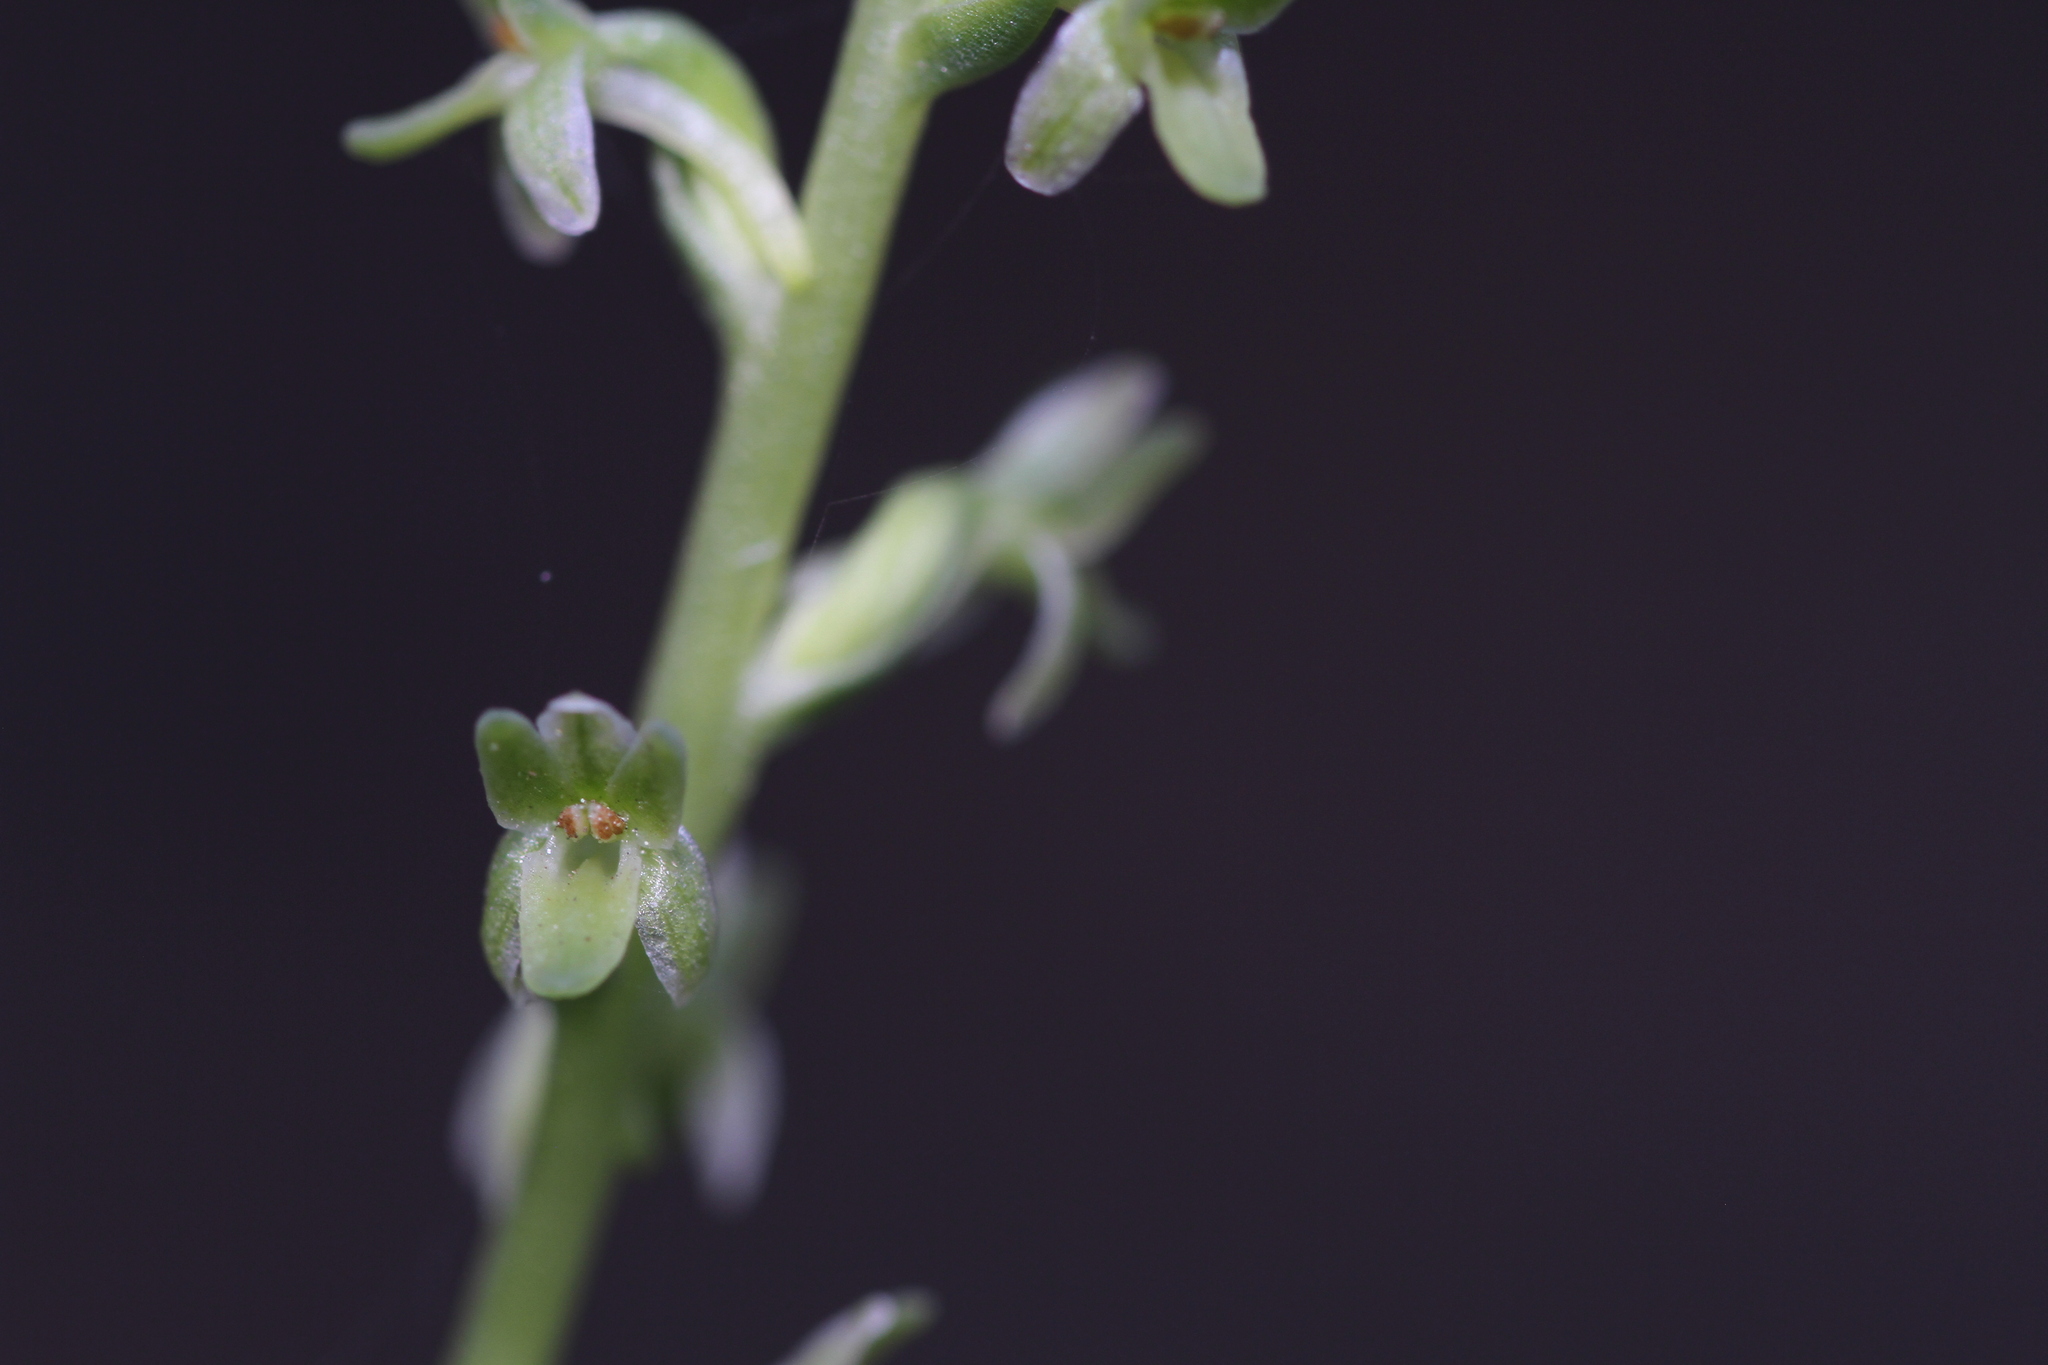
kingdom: Plantae
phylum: Tracheophyta
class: Liliopsida
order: Asparagales
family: Orchidaceae
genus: Platanthera
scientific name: Platanthera unalascensis
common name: Alaska bog orchid
